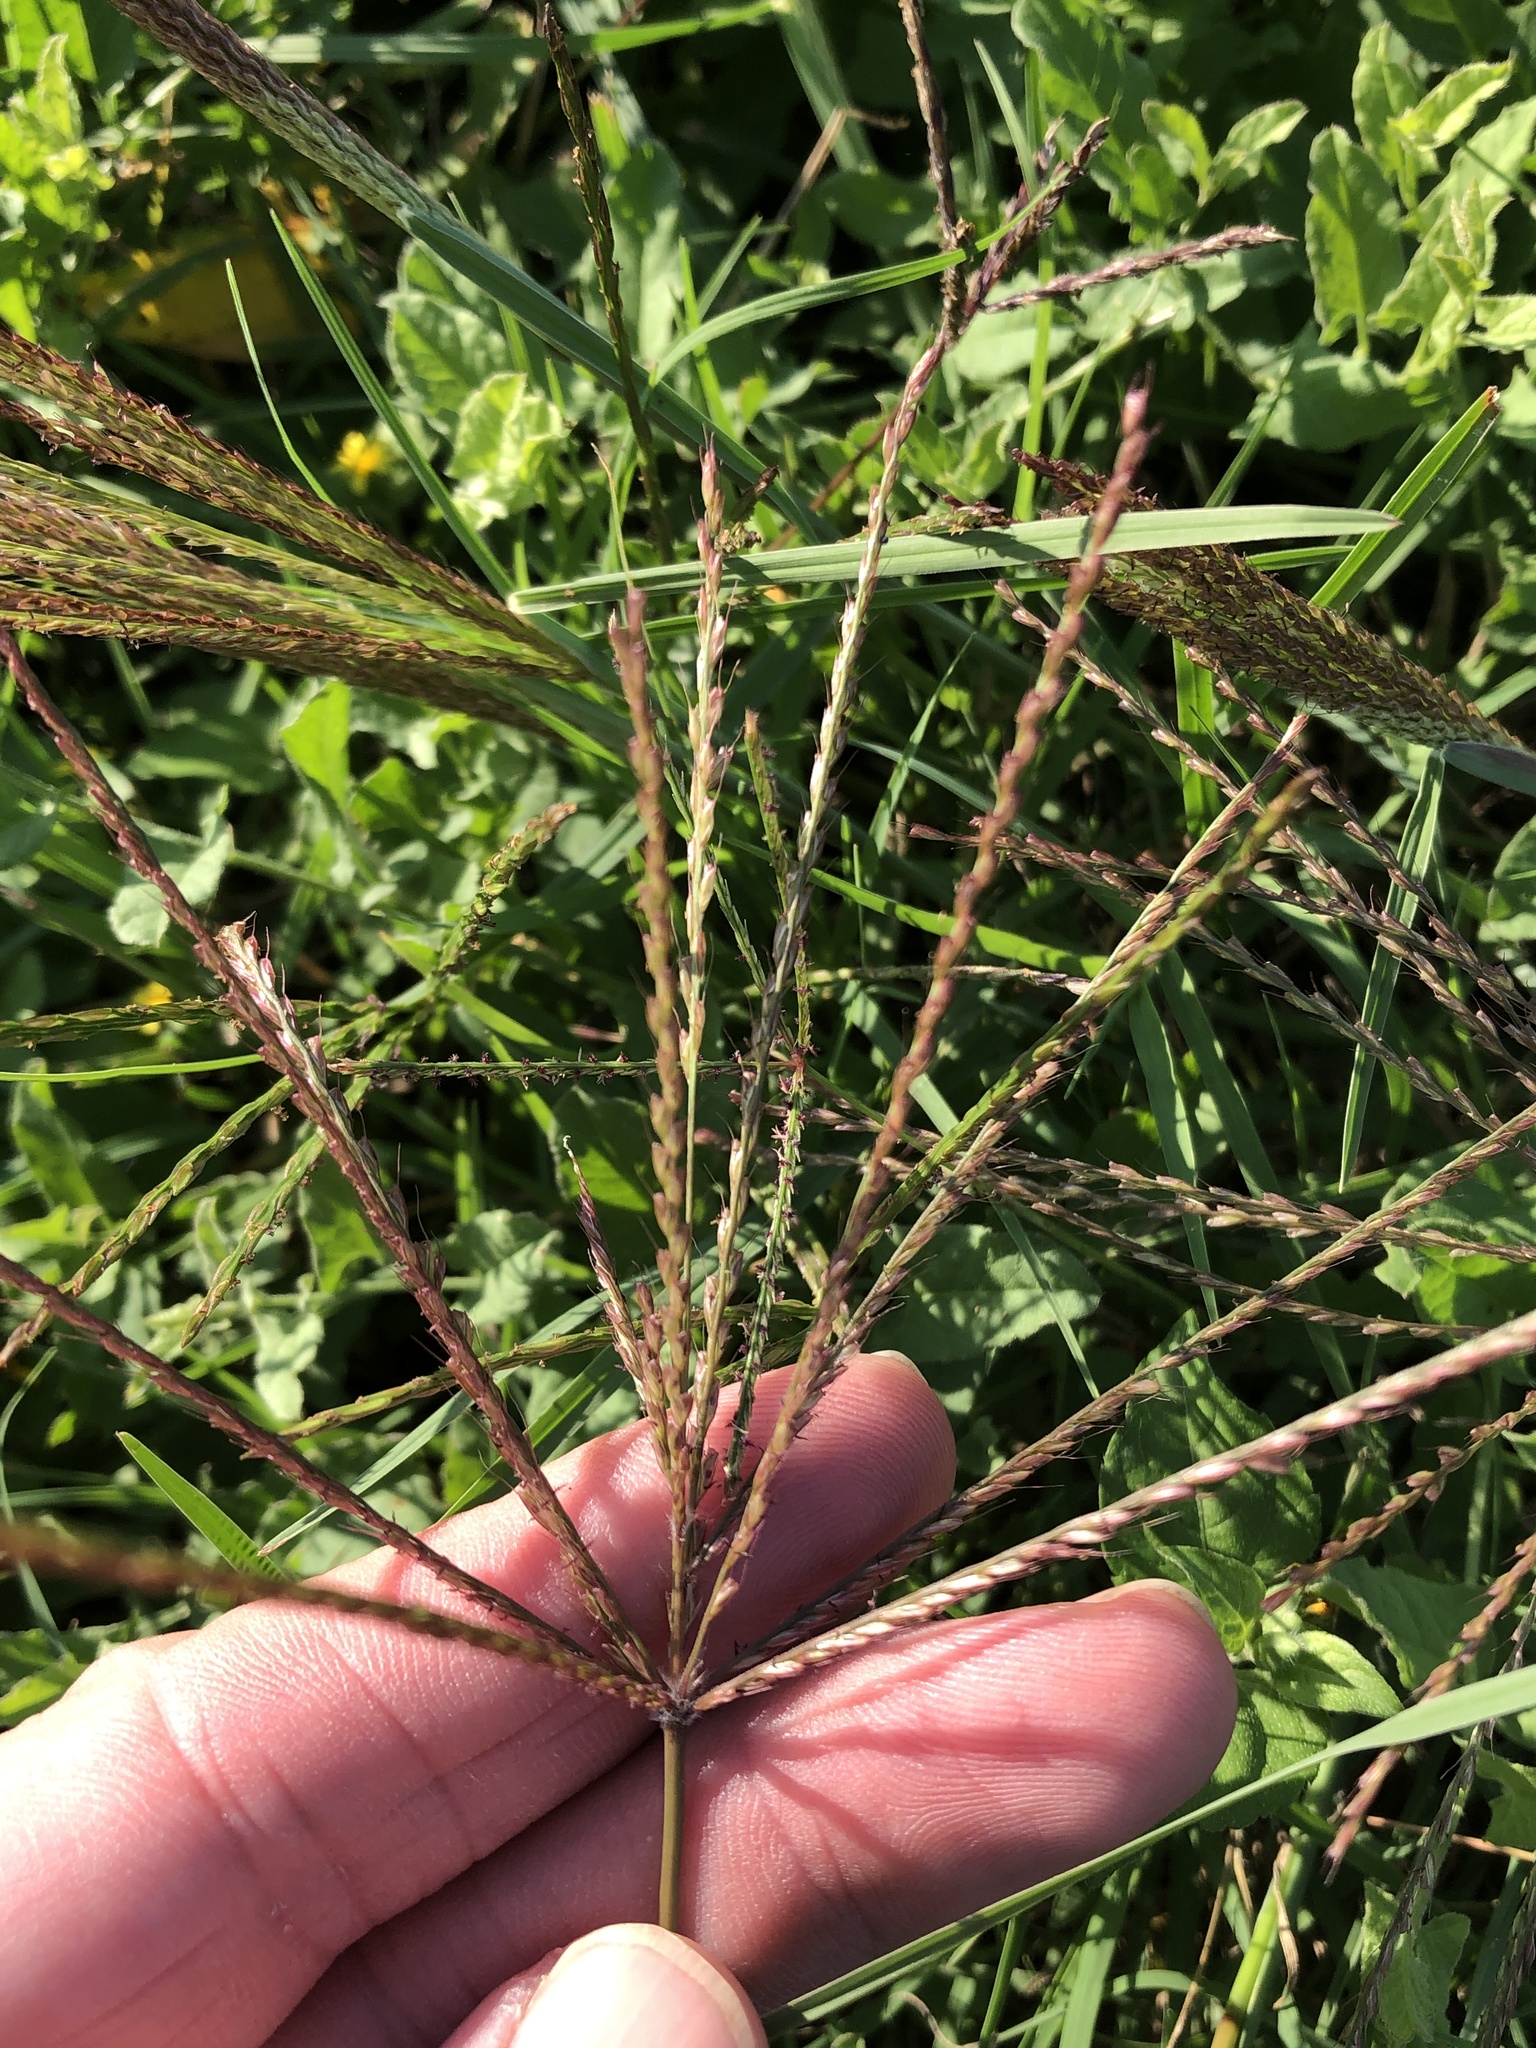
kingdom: Plantae
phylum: Tracheophyta
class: Liliopsida
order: Poales
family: Poaceae
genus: Chloris
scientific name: Chloris verticillata
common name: Tumble windmill grass
